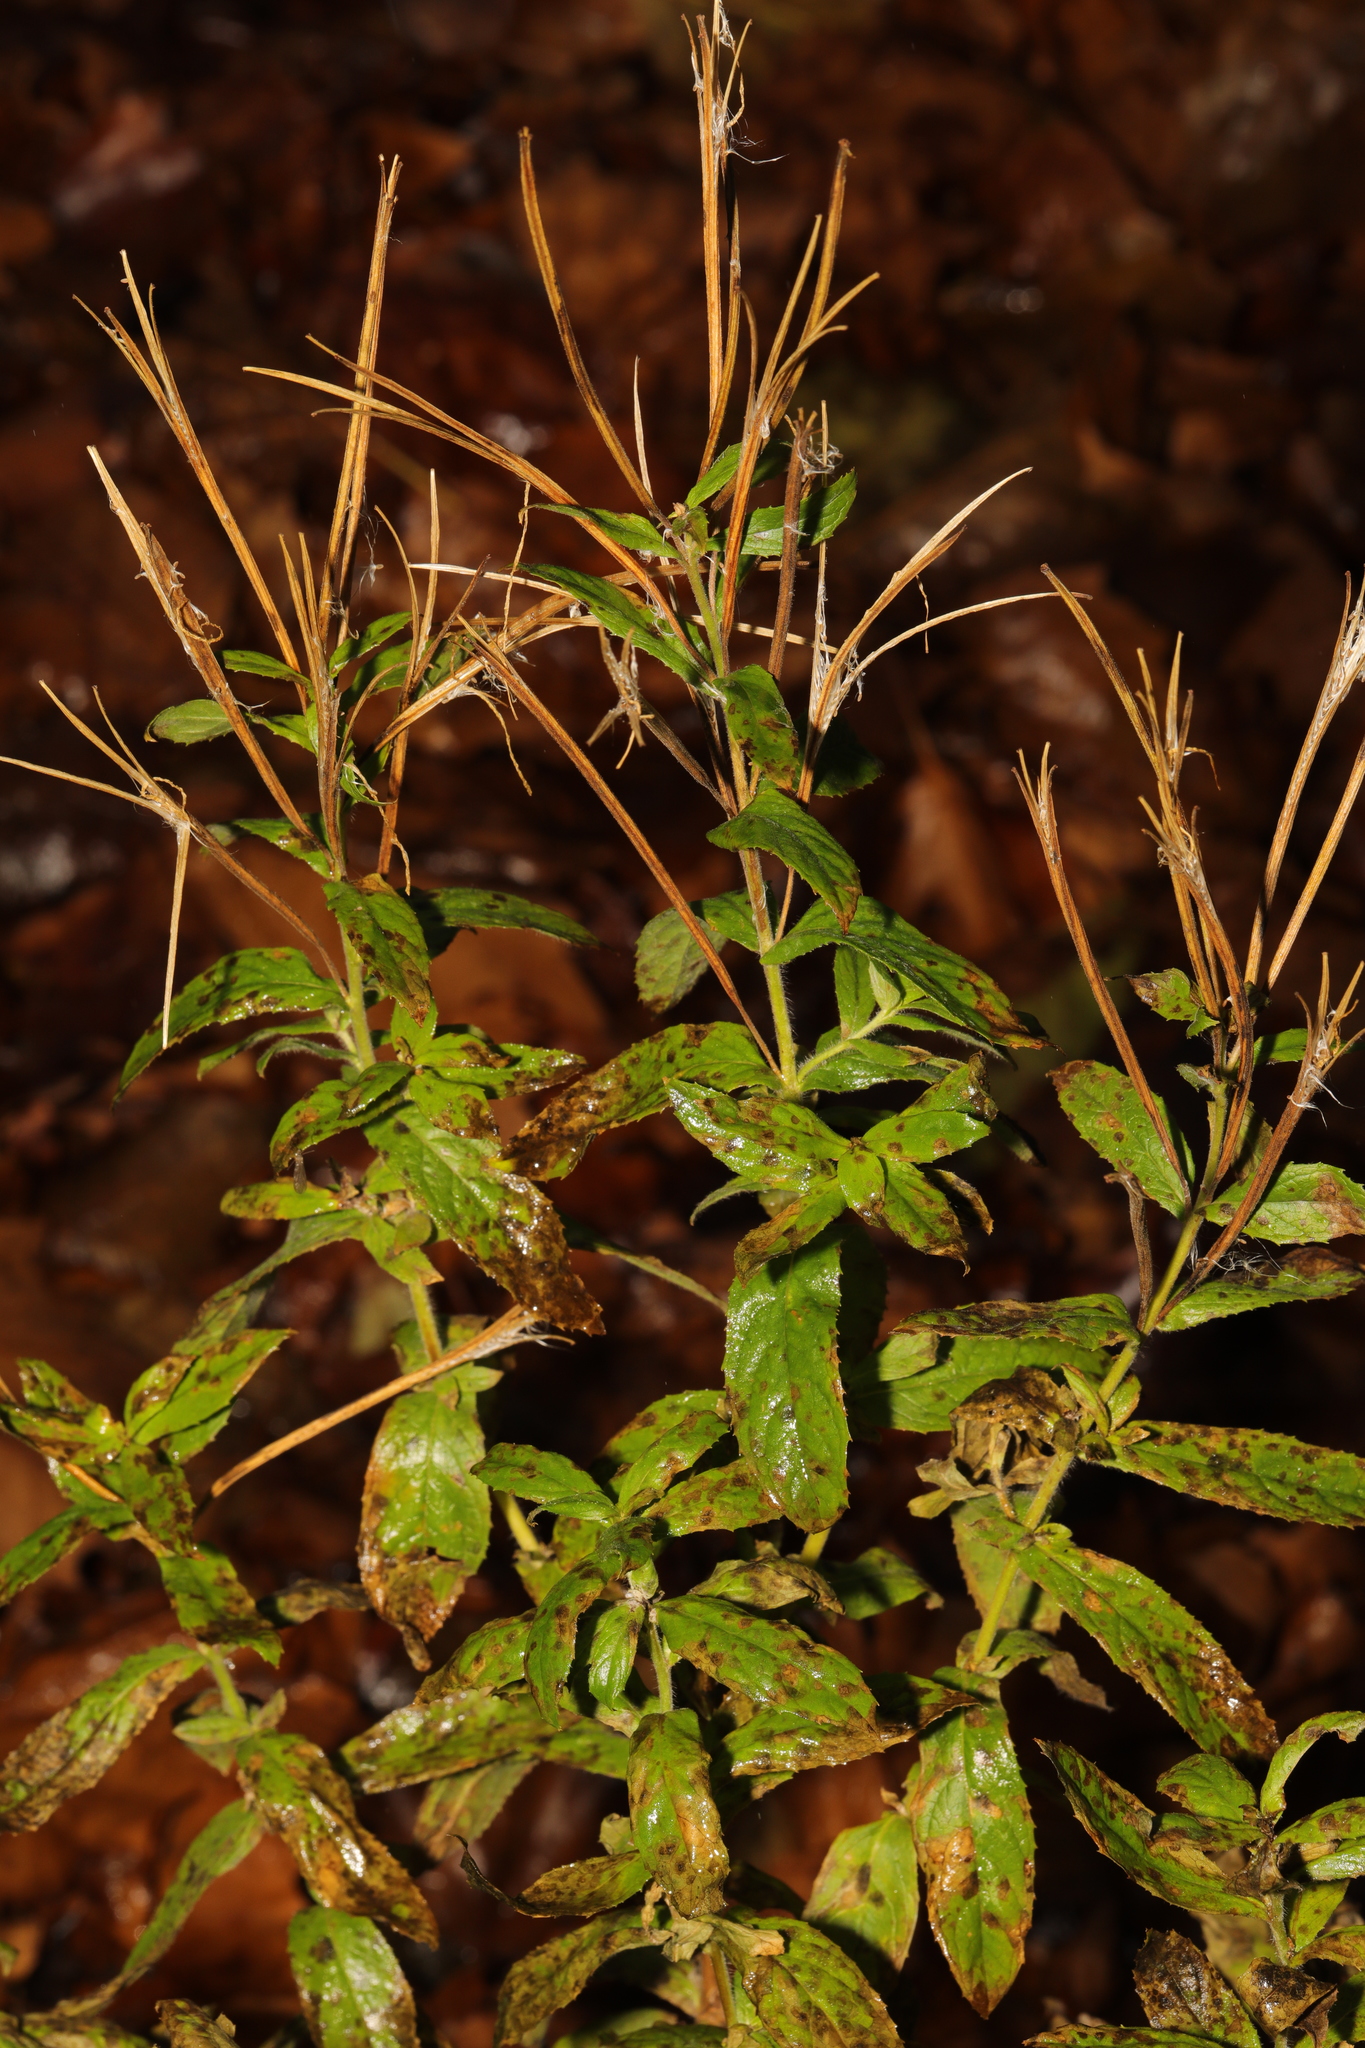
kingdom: Plantae
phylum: Tracheophyta
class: Magnoliopsida
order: Myrtales
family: Onagraceae
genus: Epilobium
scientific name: Epilobium montanum
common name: Broad-leaved willowherb
